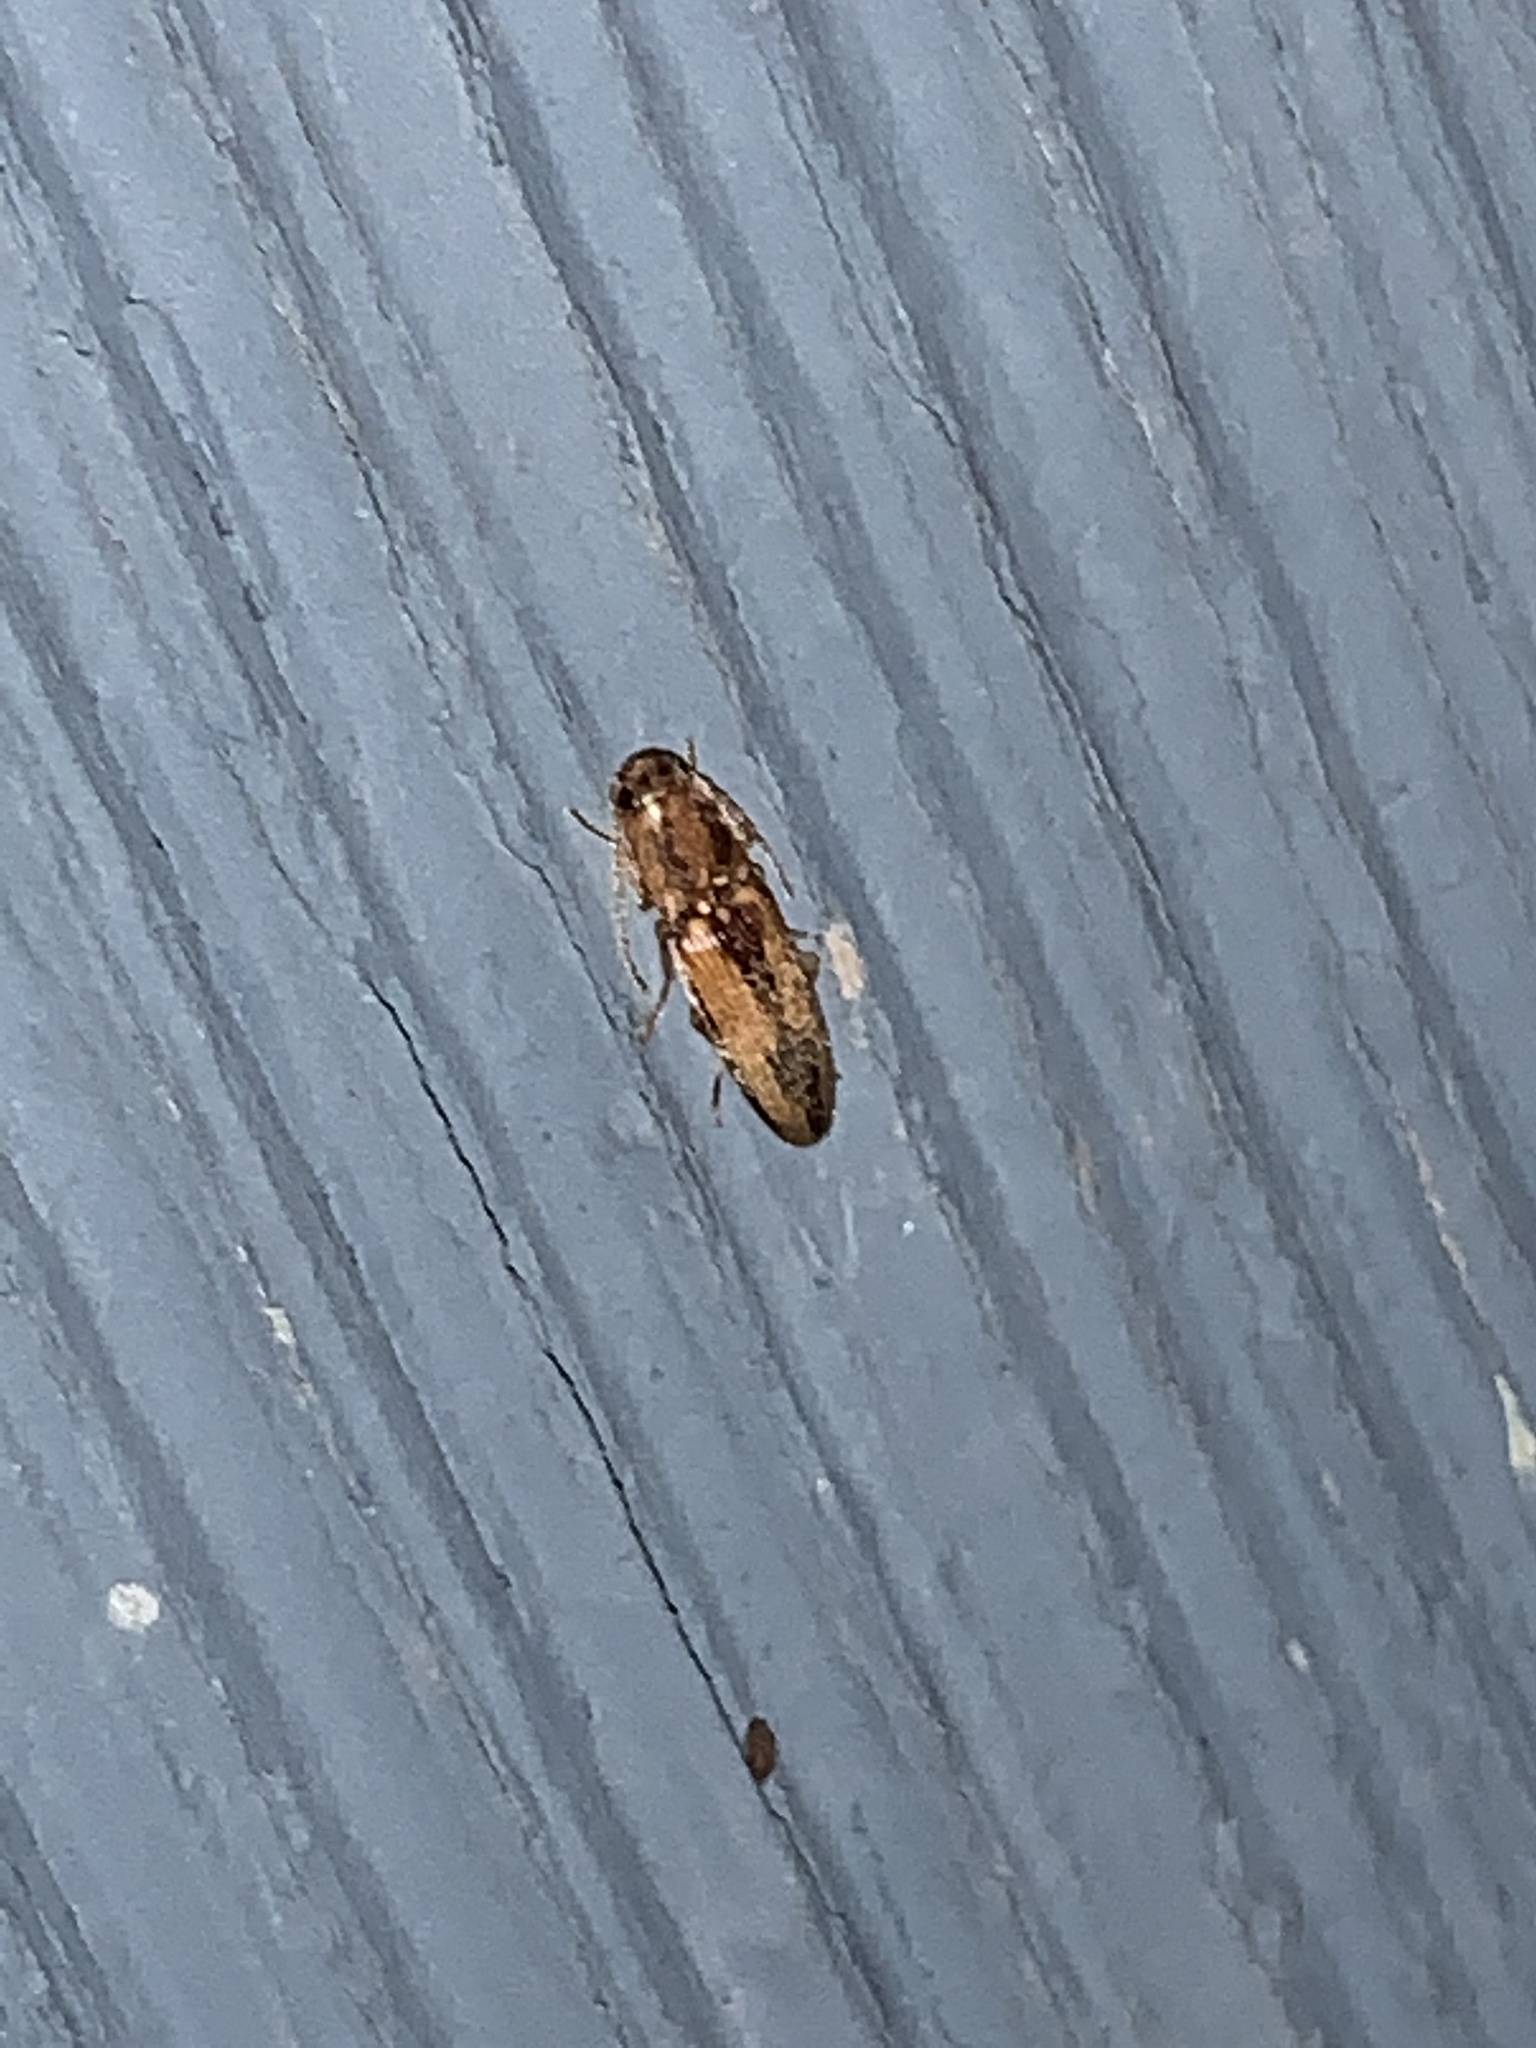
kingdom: Animalia
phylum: Arthropoda
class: Insecta
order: Coleoptera
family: Elateridae
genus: Monocrepidius
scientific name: Monocrepidius
